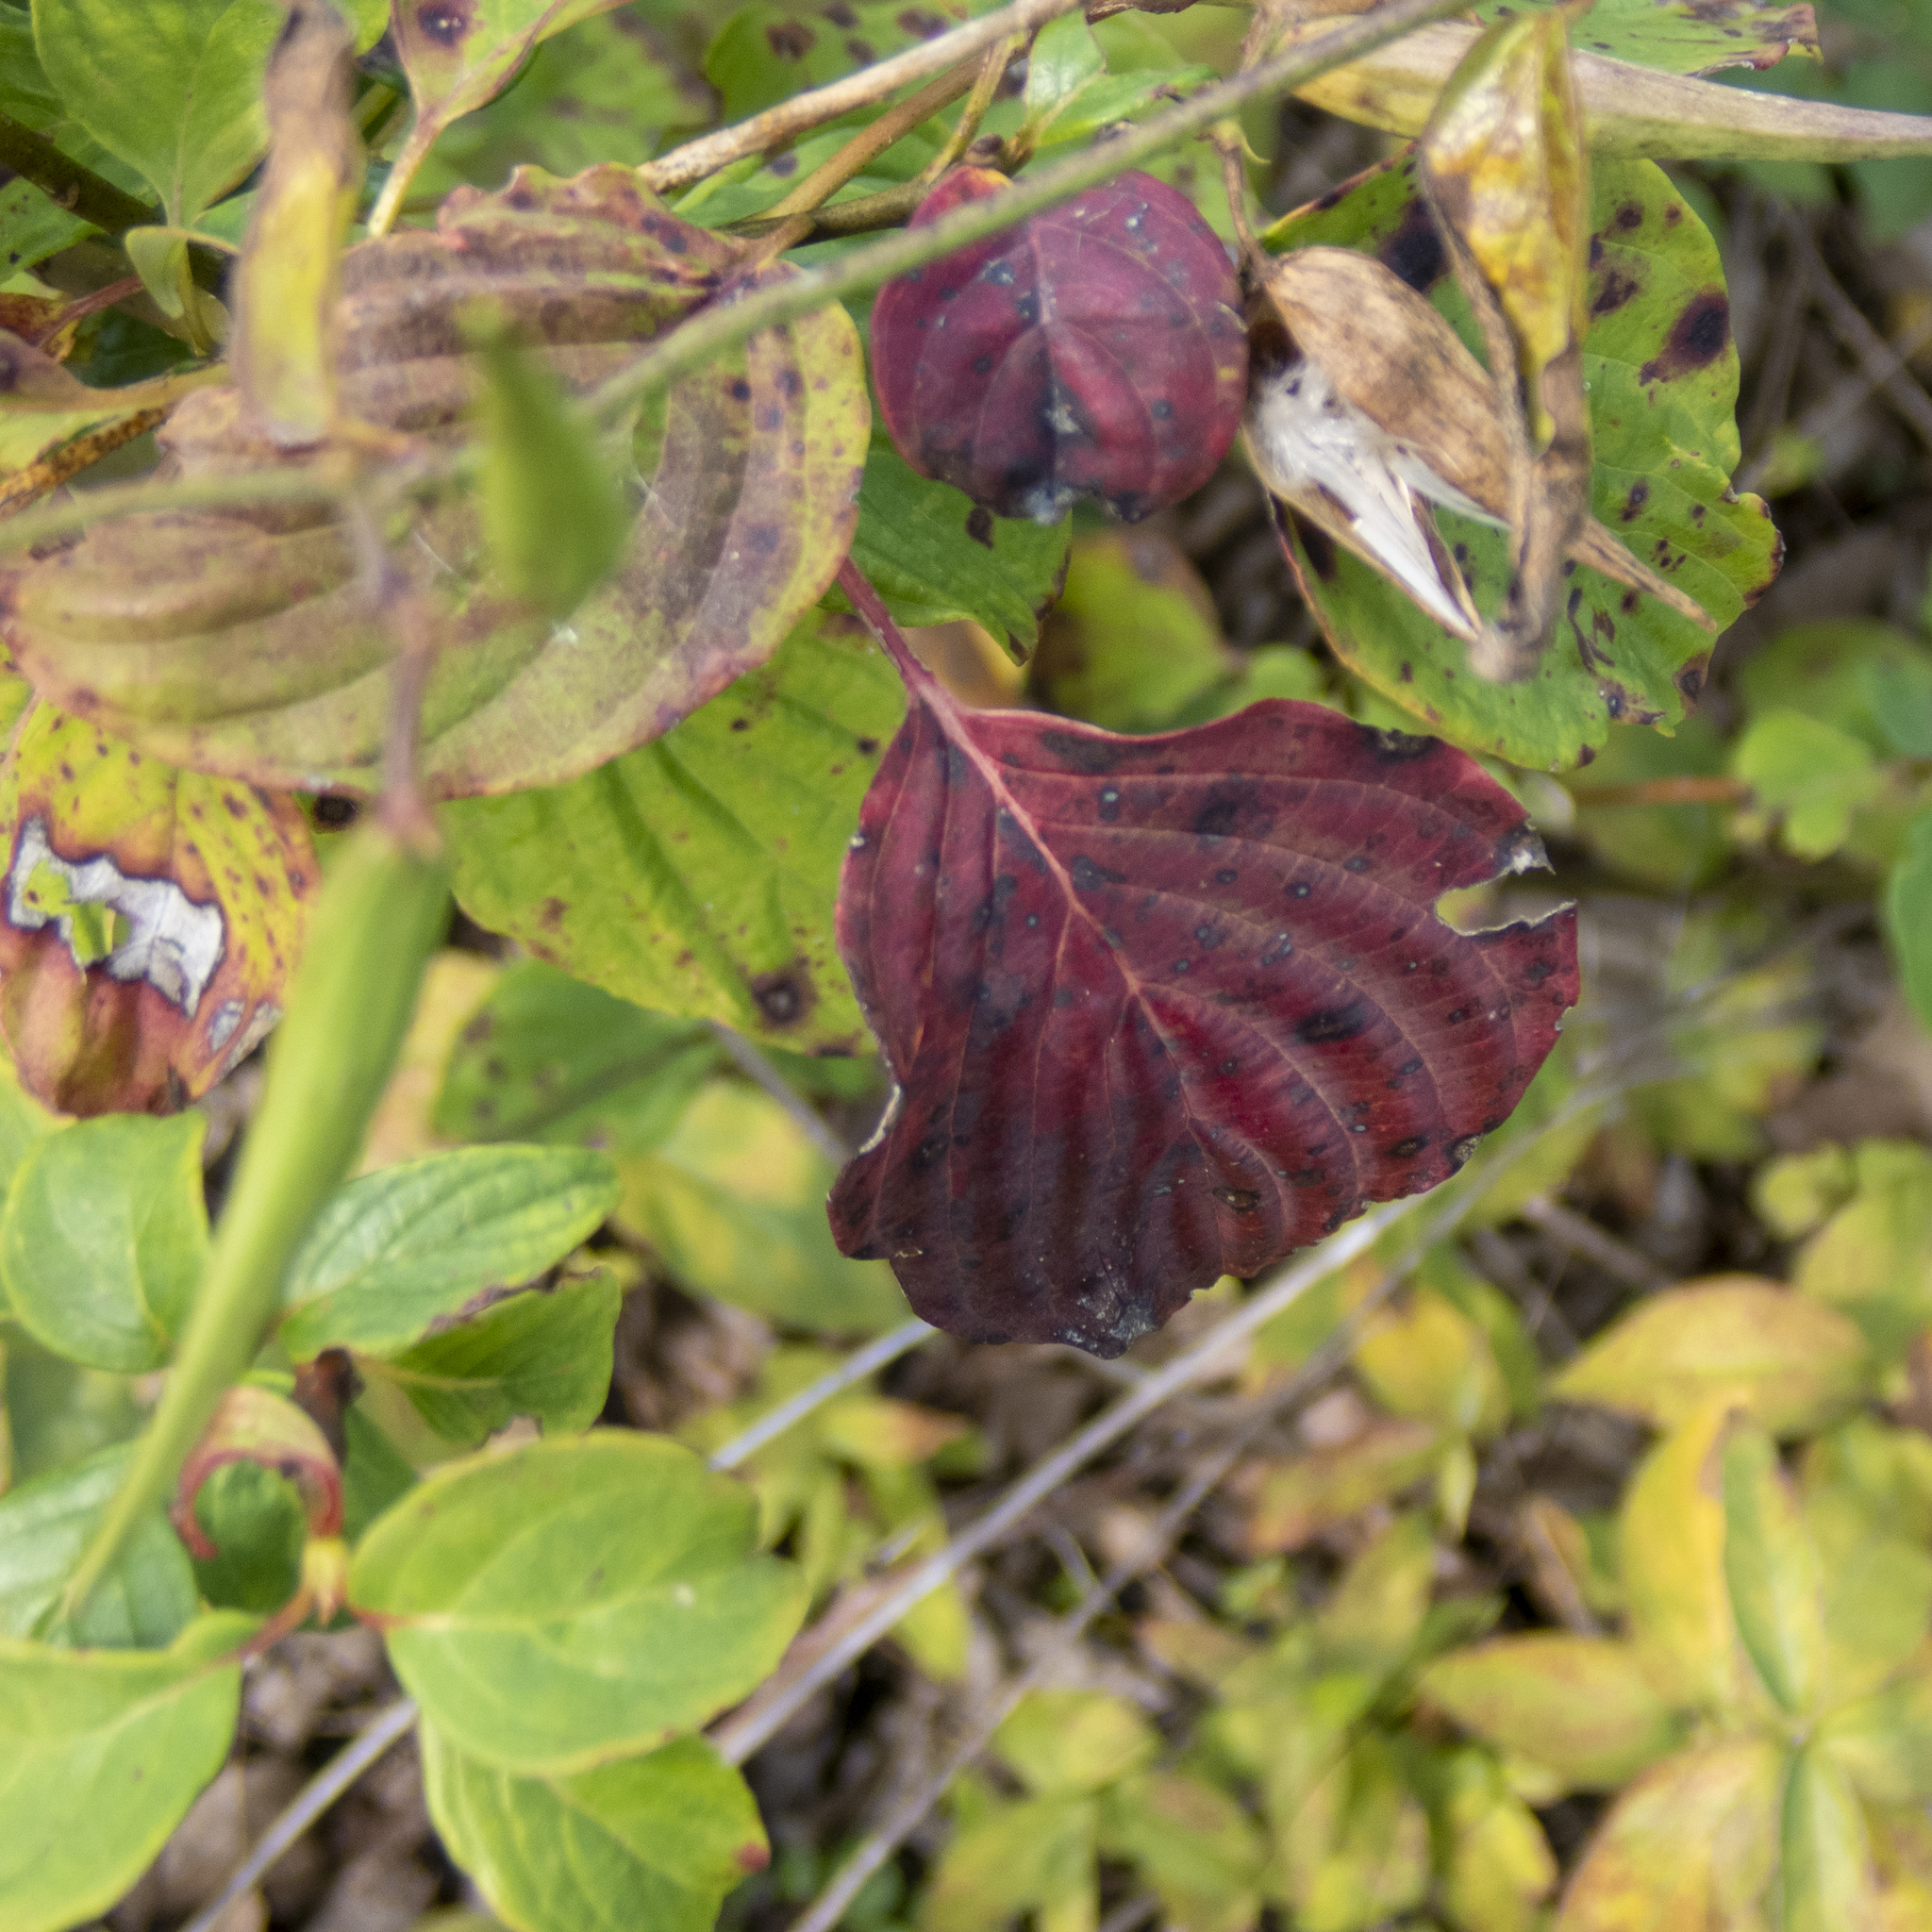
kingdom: Plantae
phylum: Tracheophyta
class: Magnoliopsida
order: Cornales
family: Cornaceae
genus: Cornus
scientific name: Cornus alternifolia
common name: Pagoda dogwood
